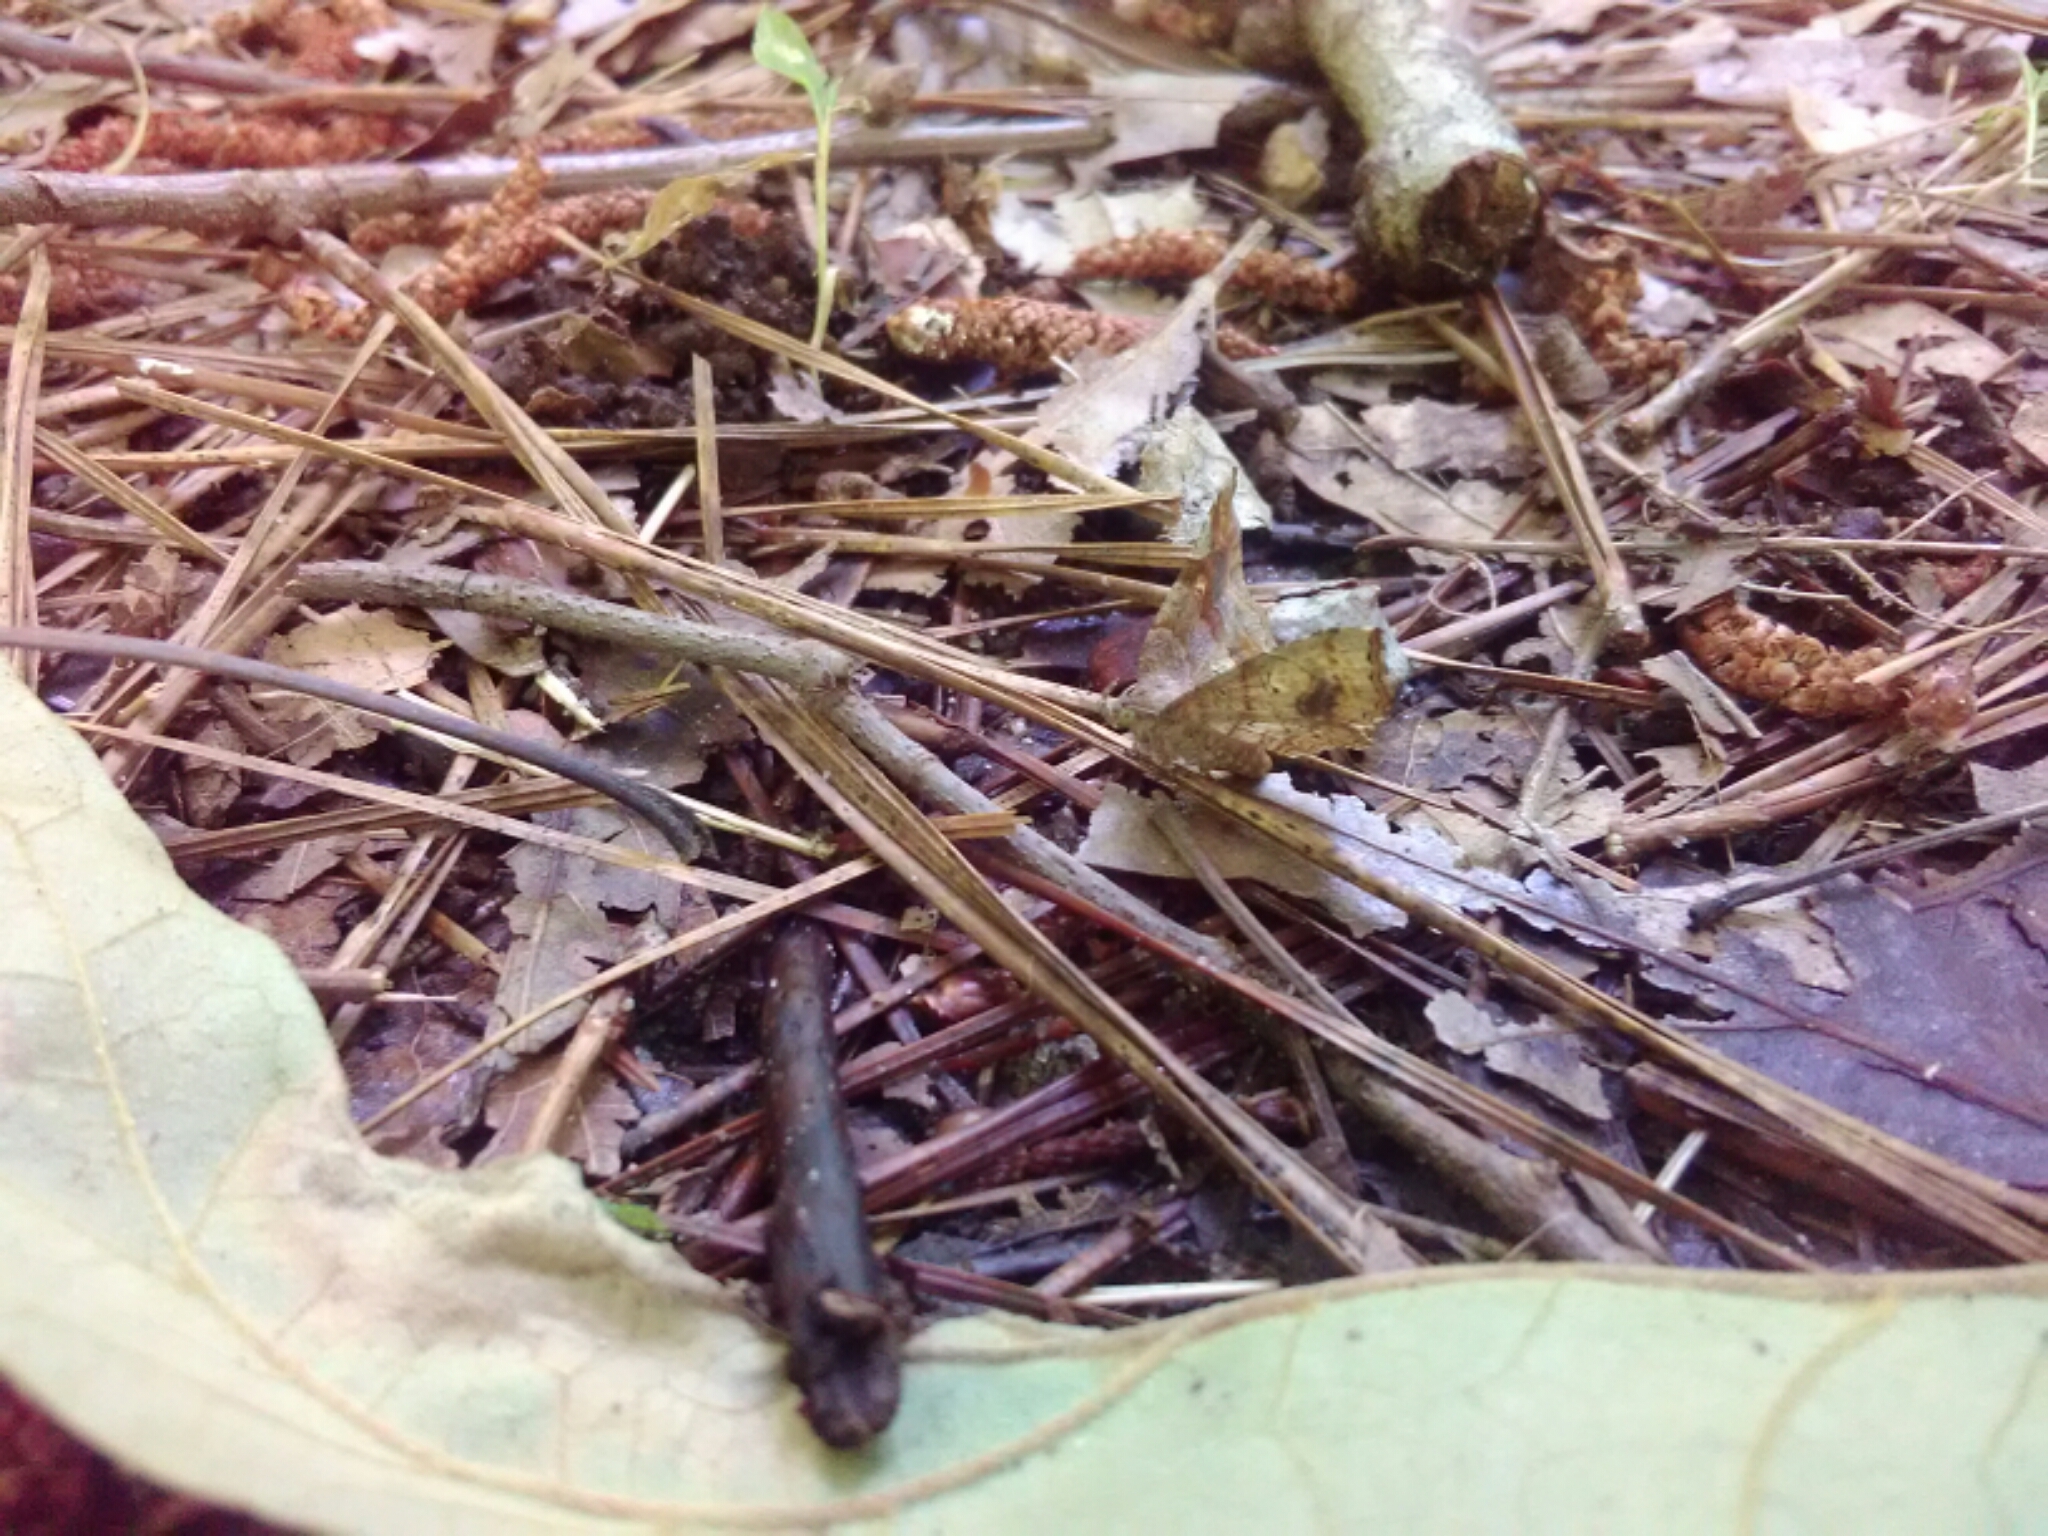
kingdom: Animalia
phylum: Arthropoda
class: Insecta
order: Lepidoptera
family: Erebidae
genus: Pangrapta
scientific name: Pangrapta decoralis
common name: Decorated owlet
